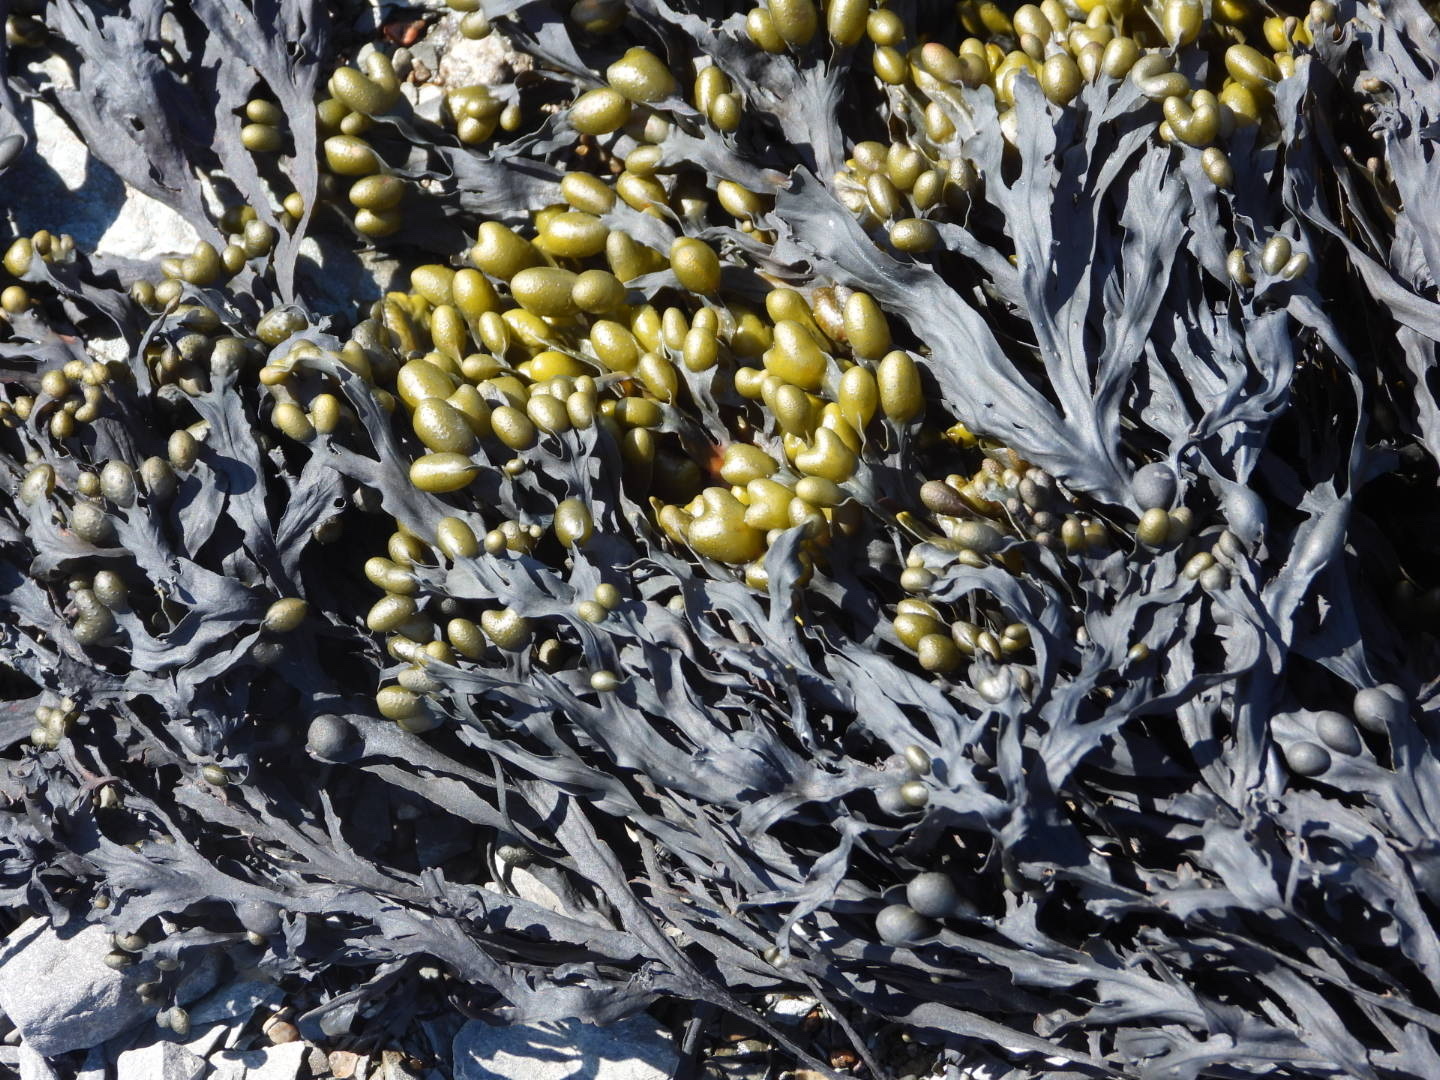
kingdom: Chromista
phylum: Ochrophyta
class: Phaeophyceae
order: Fucales
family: Fucaceae
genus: Fucus
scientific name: Fucus vesiculosus
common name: Bladder wrack
